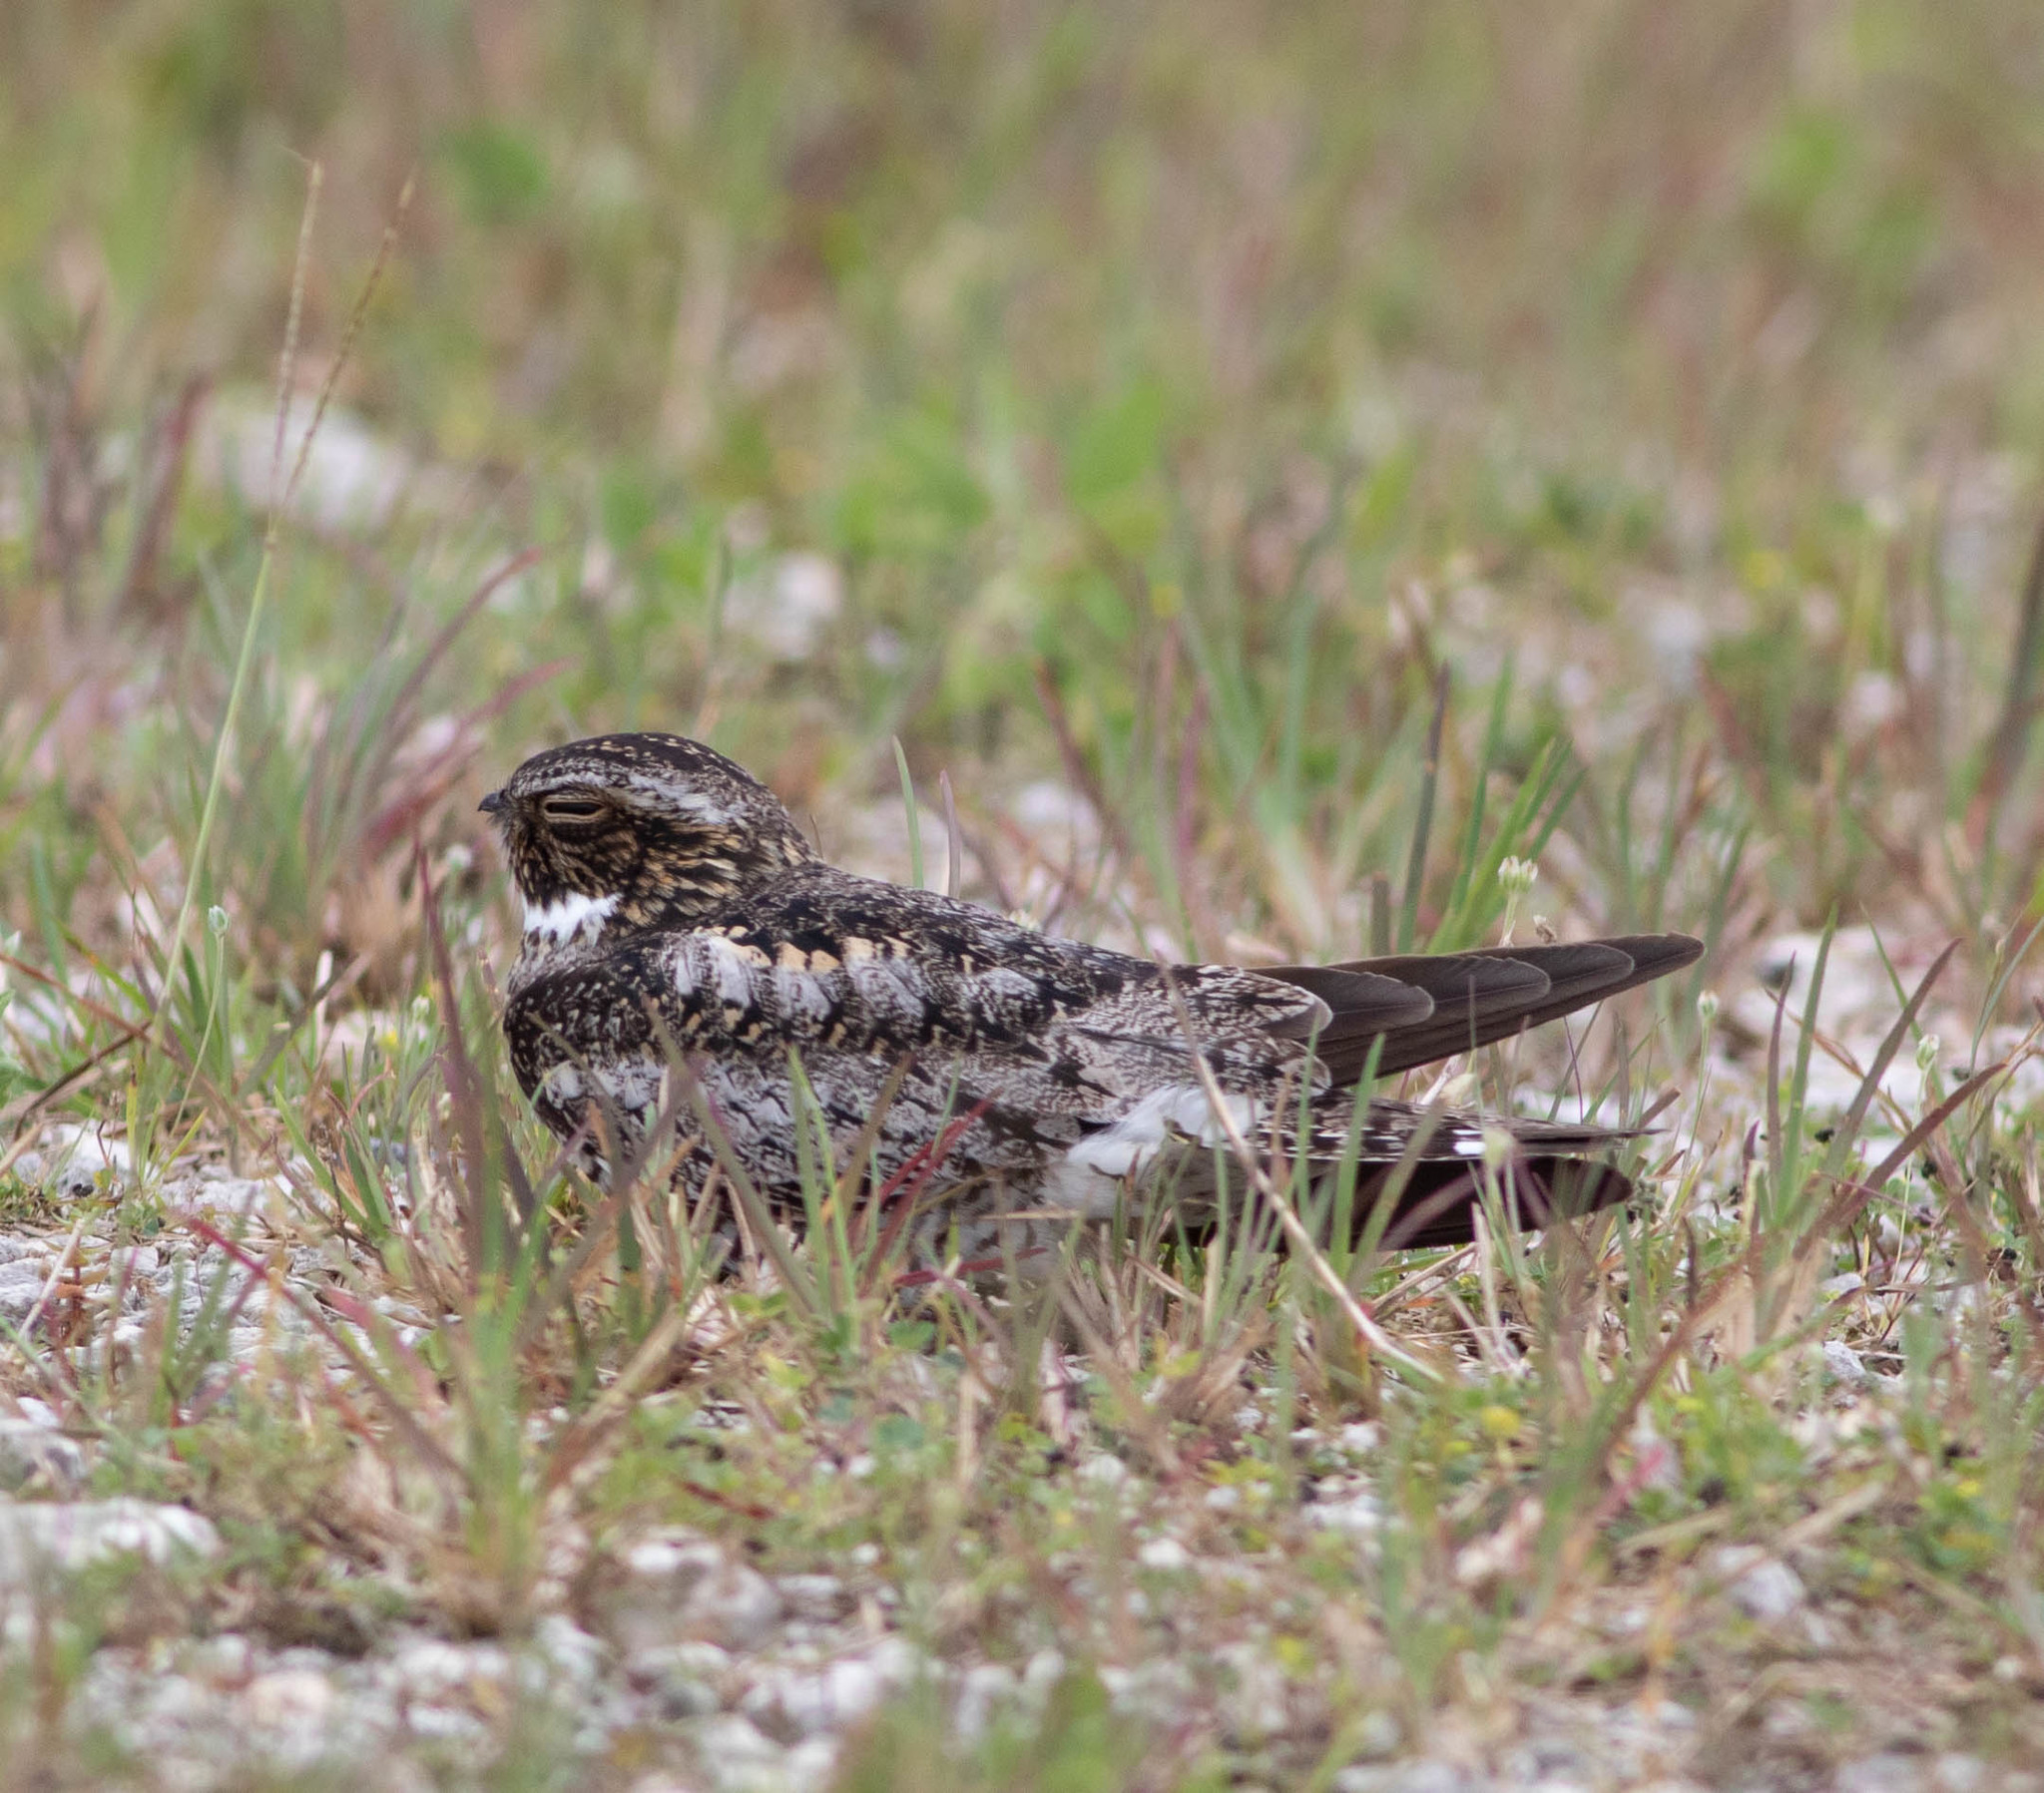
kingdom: Animalia
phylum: Chordata
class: Aves
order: Caprimulgiformes
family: Caprimulgidae
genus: Chordeiles
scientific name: Chordeiles minor
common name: Common nighthawk
